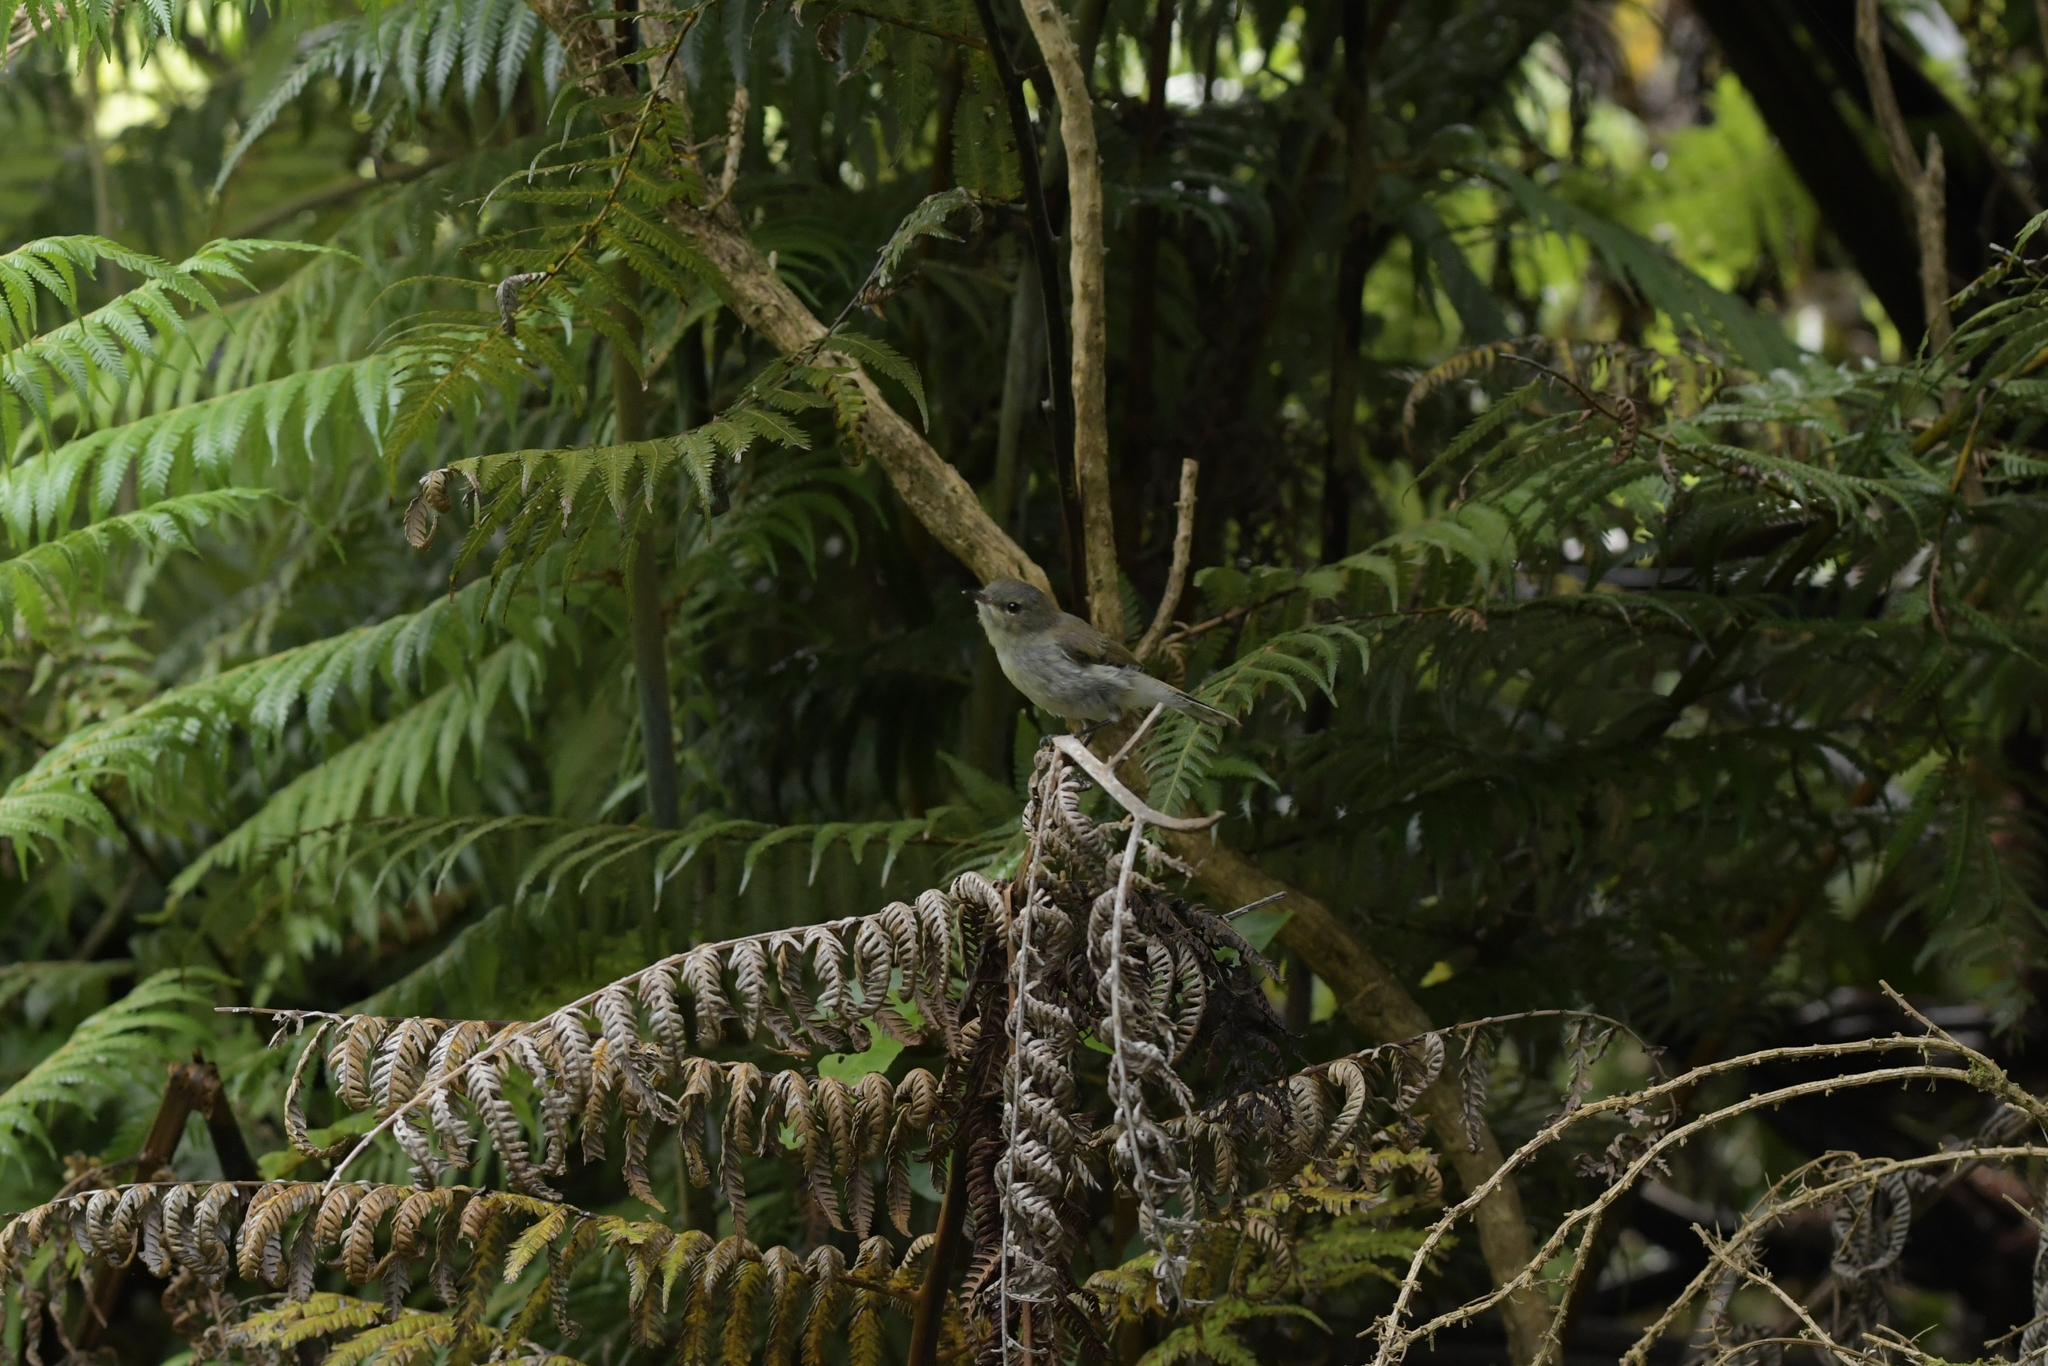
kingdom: Animalia
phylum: Chordata
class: Aves
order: Passeriformes
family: Acanthizidae
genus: Gerygone
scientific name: Gerygone igata
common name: Grey gerygone
